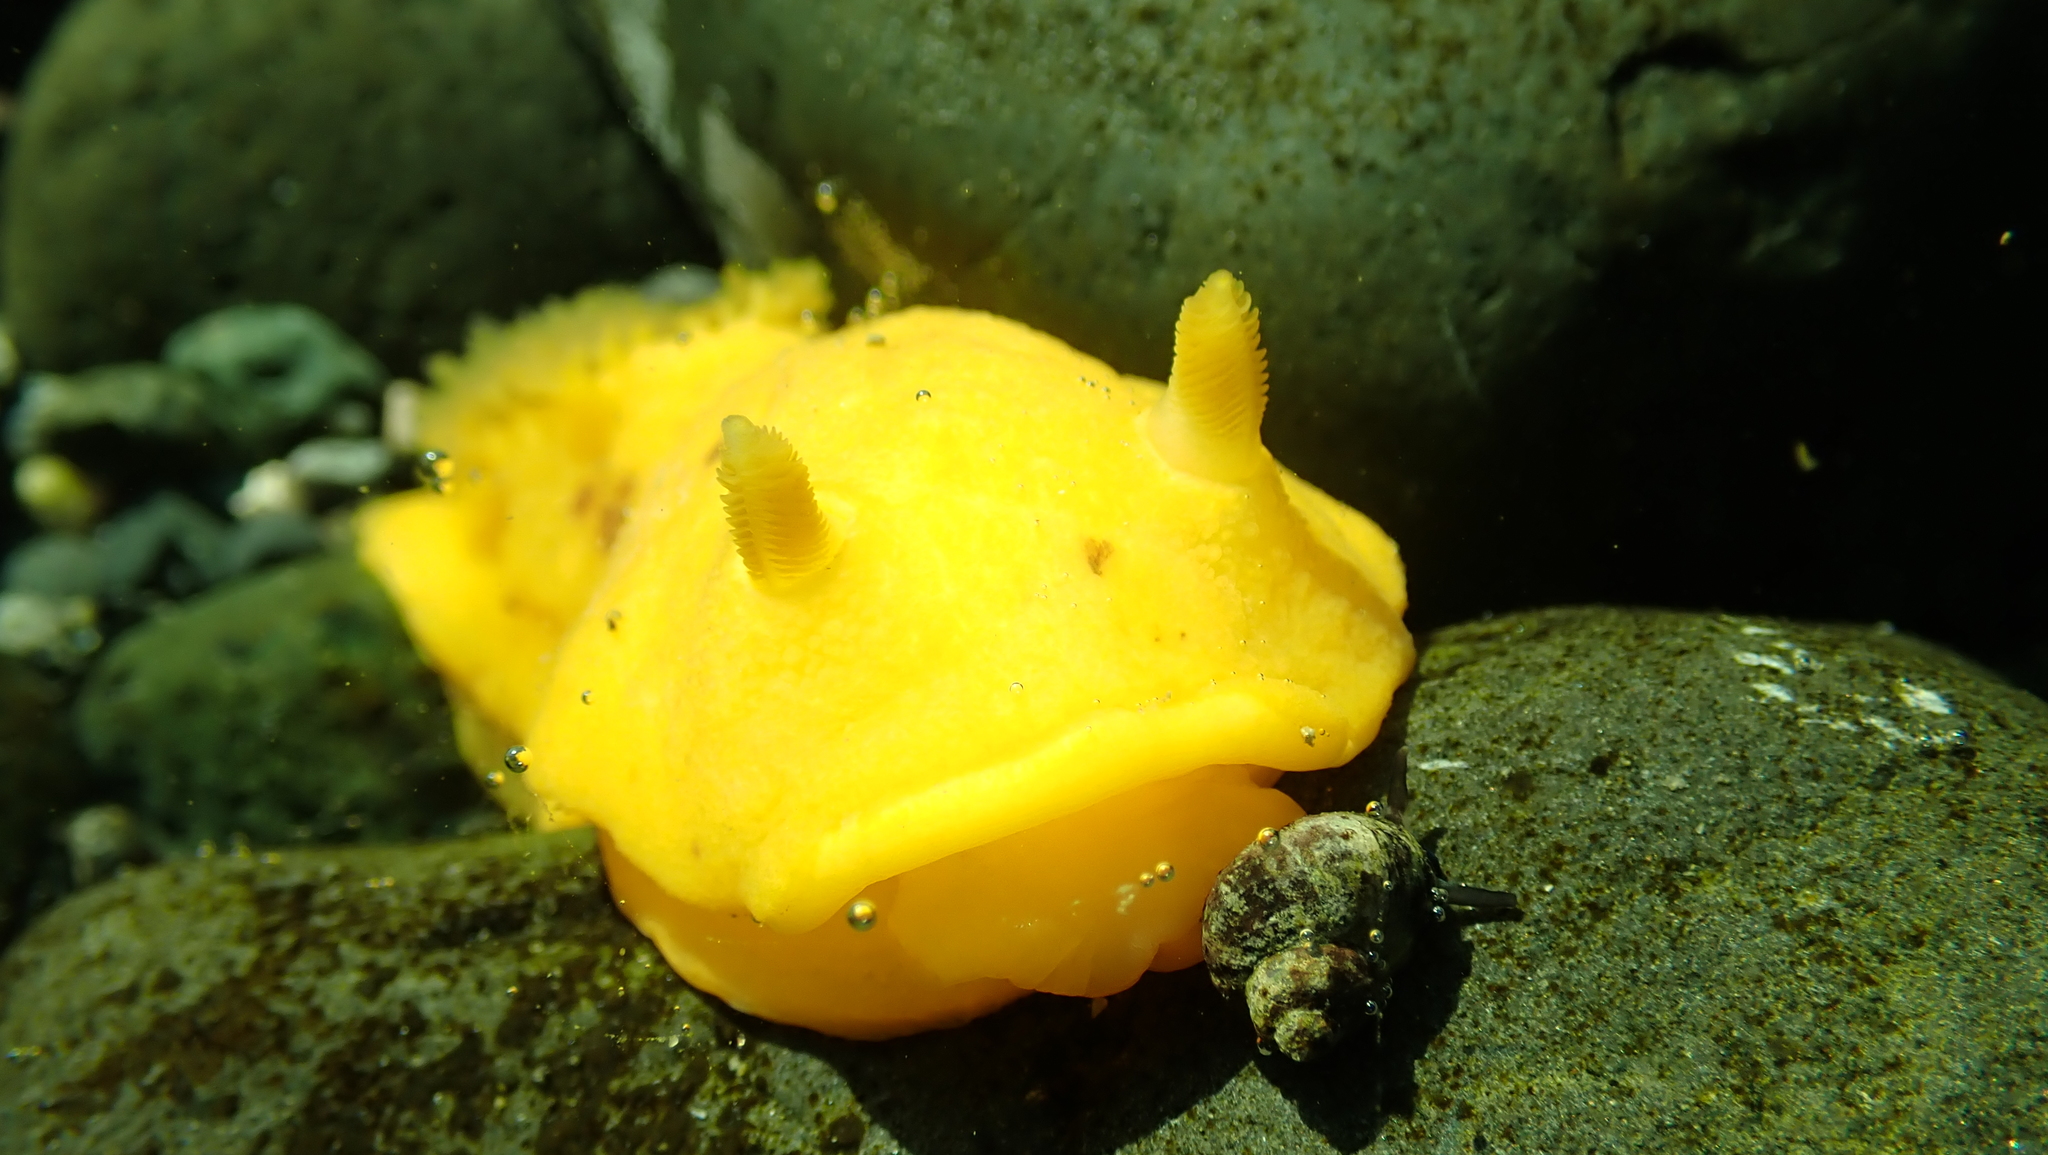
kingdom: Animalia
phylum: Mollusca
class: Gastropoda
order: Nudibranchia
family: Dorididae
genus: Doris
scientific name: Doris montereyensis
